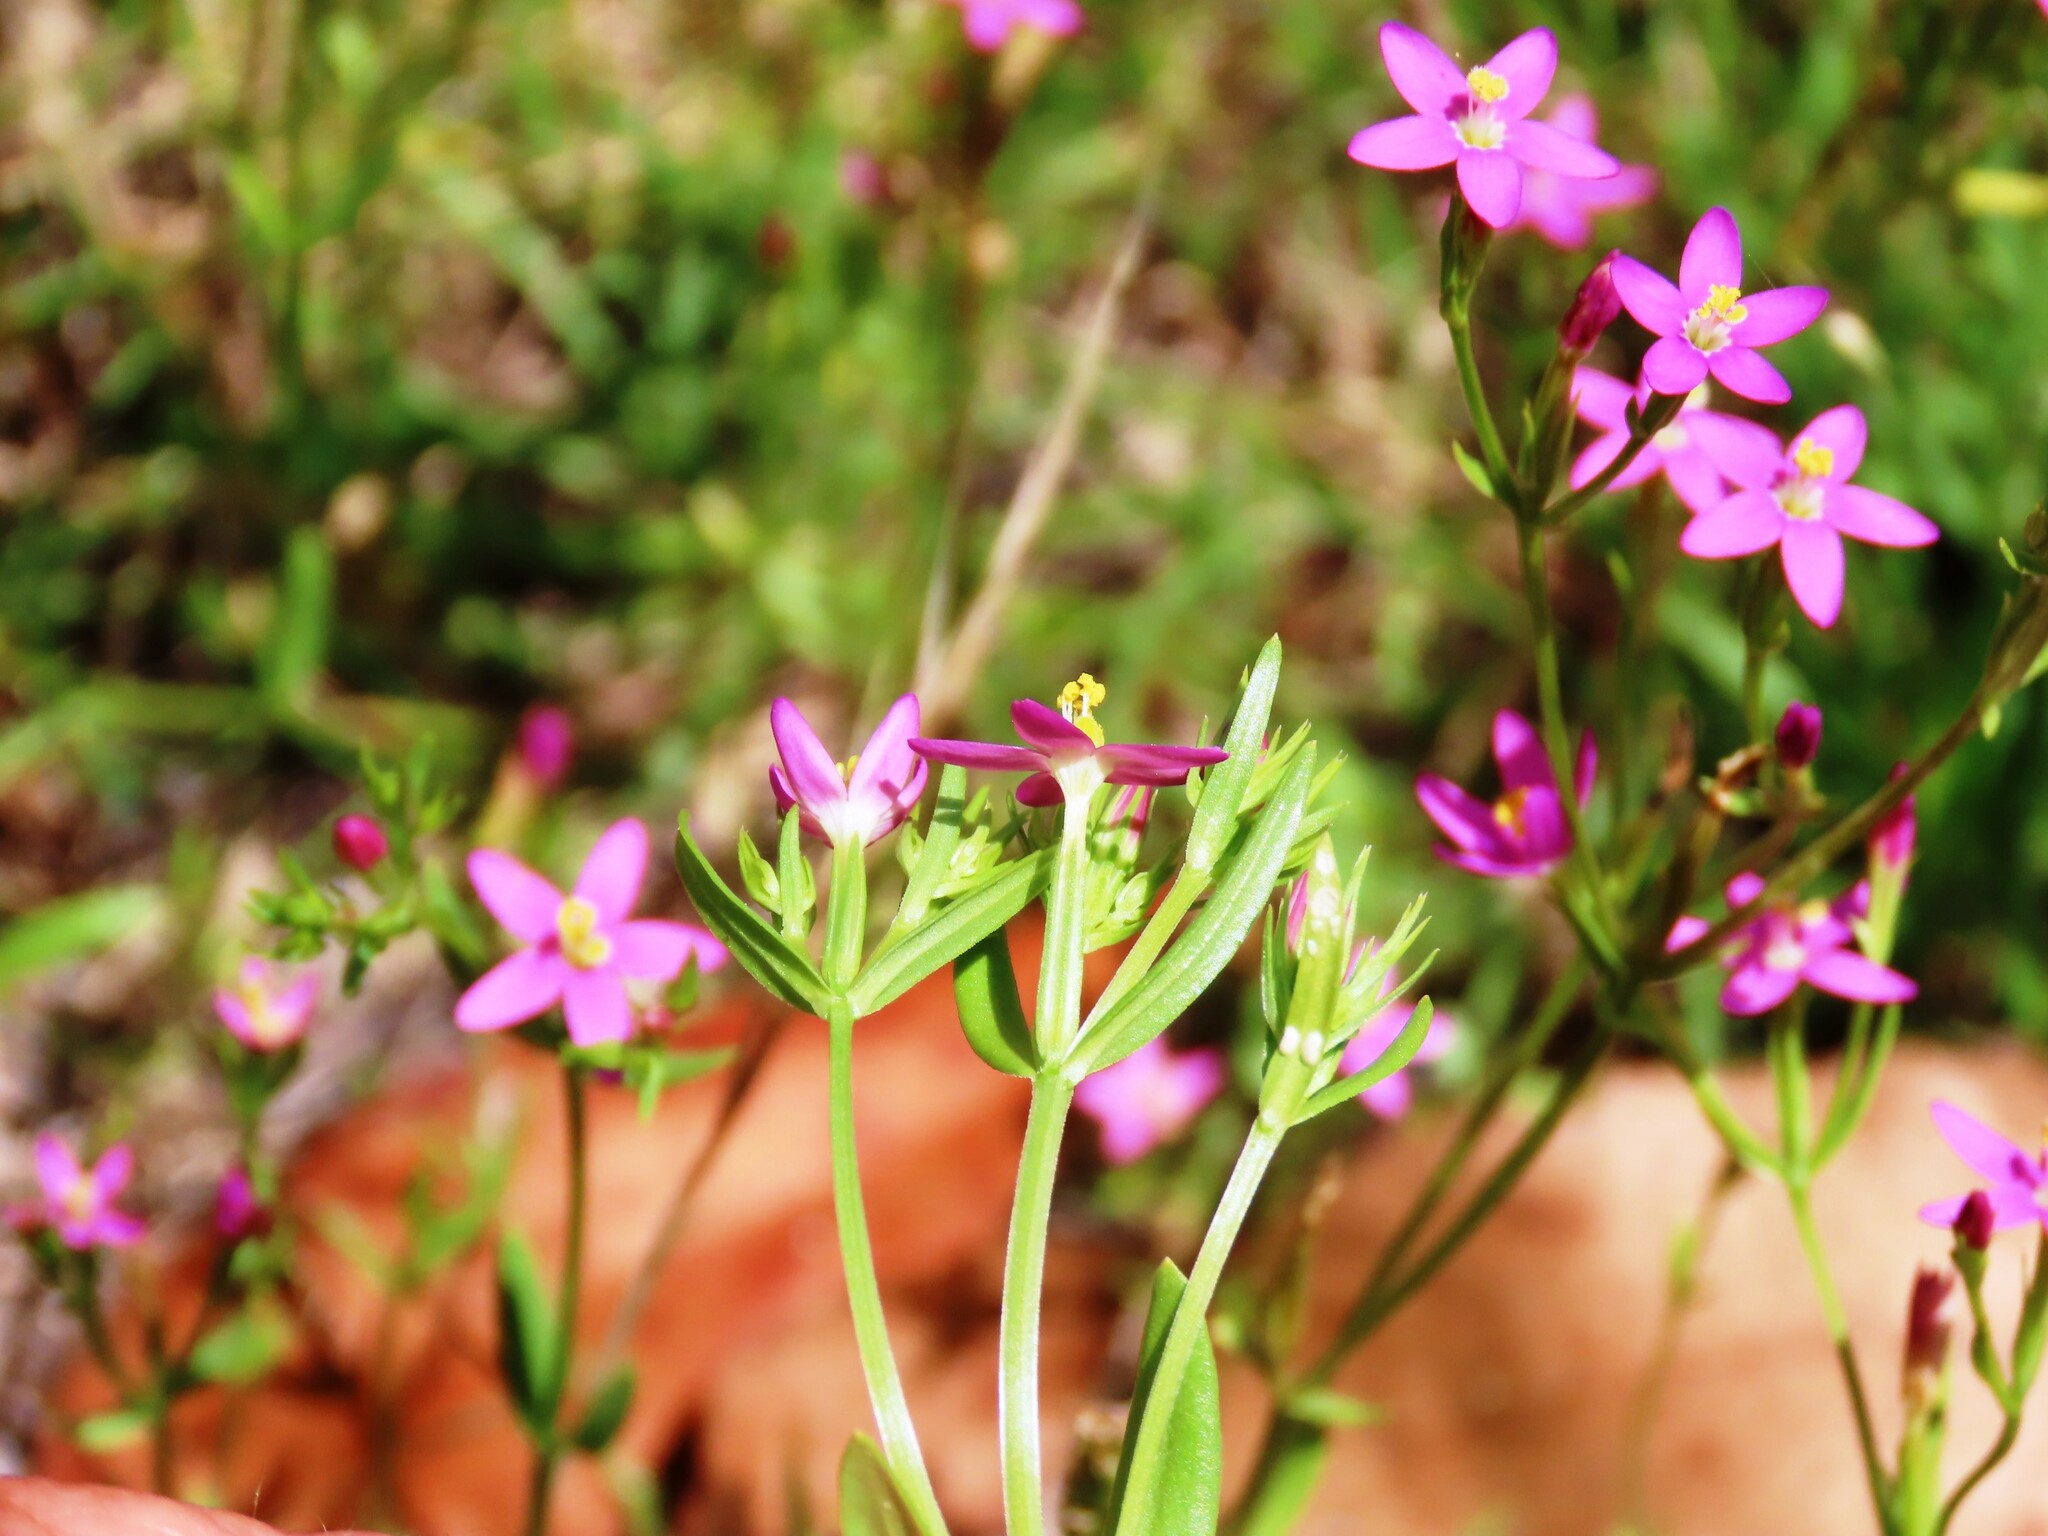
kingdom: Plantae
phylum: Tracheophyta
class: Magnoliopsida
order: Gentianales
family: Gentianaceae
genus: Centaurium
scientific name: Centaurium tenuiflorum
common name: Slender centaury
